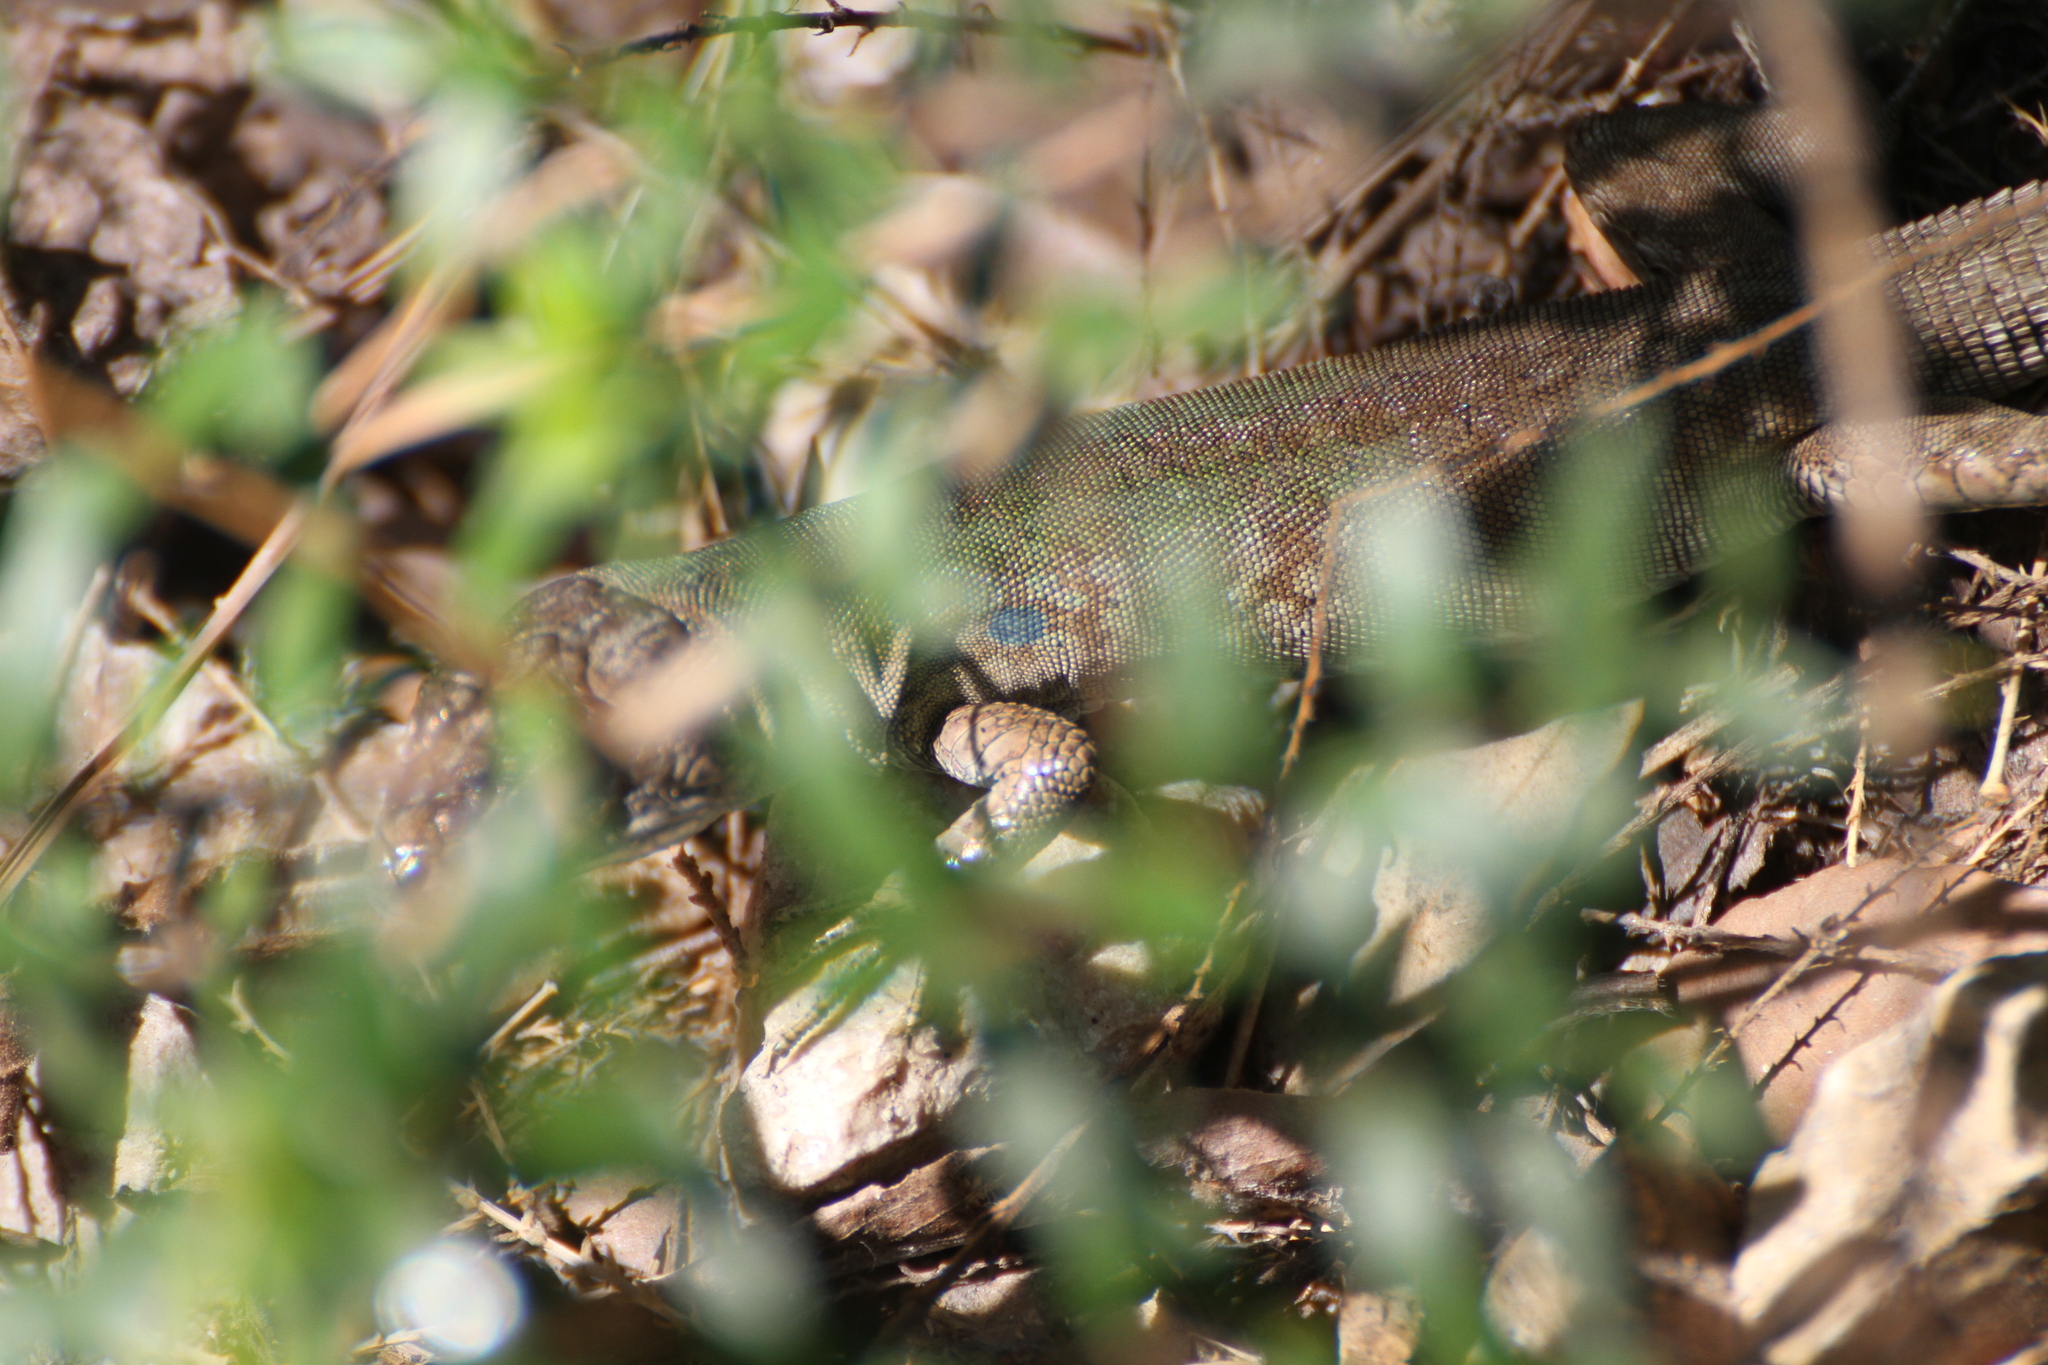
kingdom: Animalia
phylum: Chordata
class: Squamata
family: Lacertidae
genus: Podarcis
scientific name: Podarcis siculus
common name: Italian wall lizard
